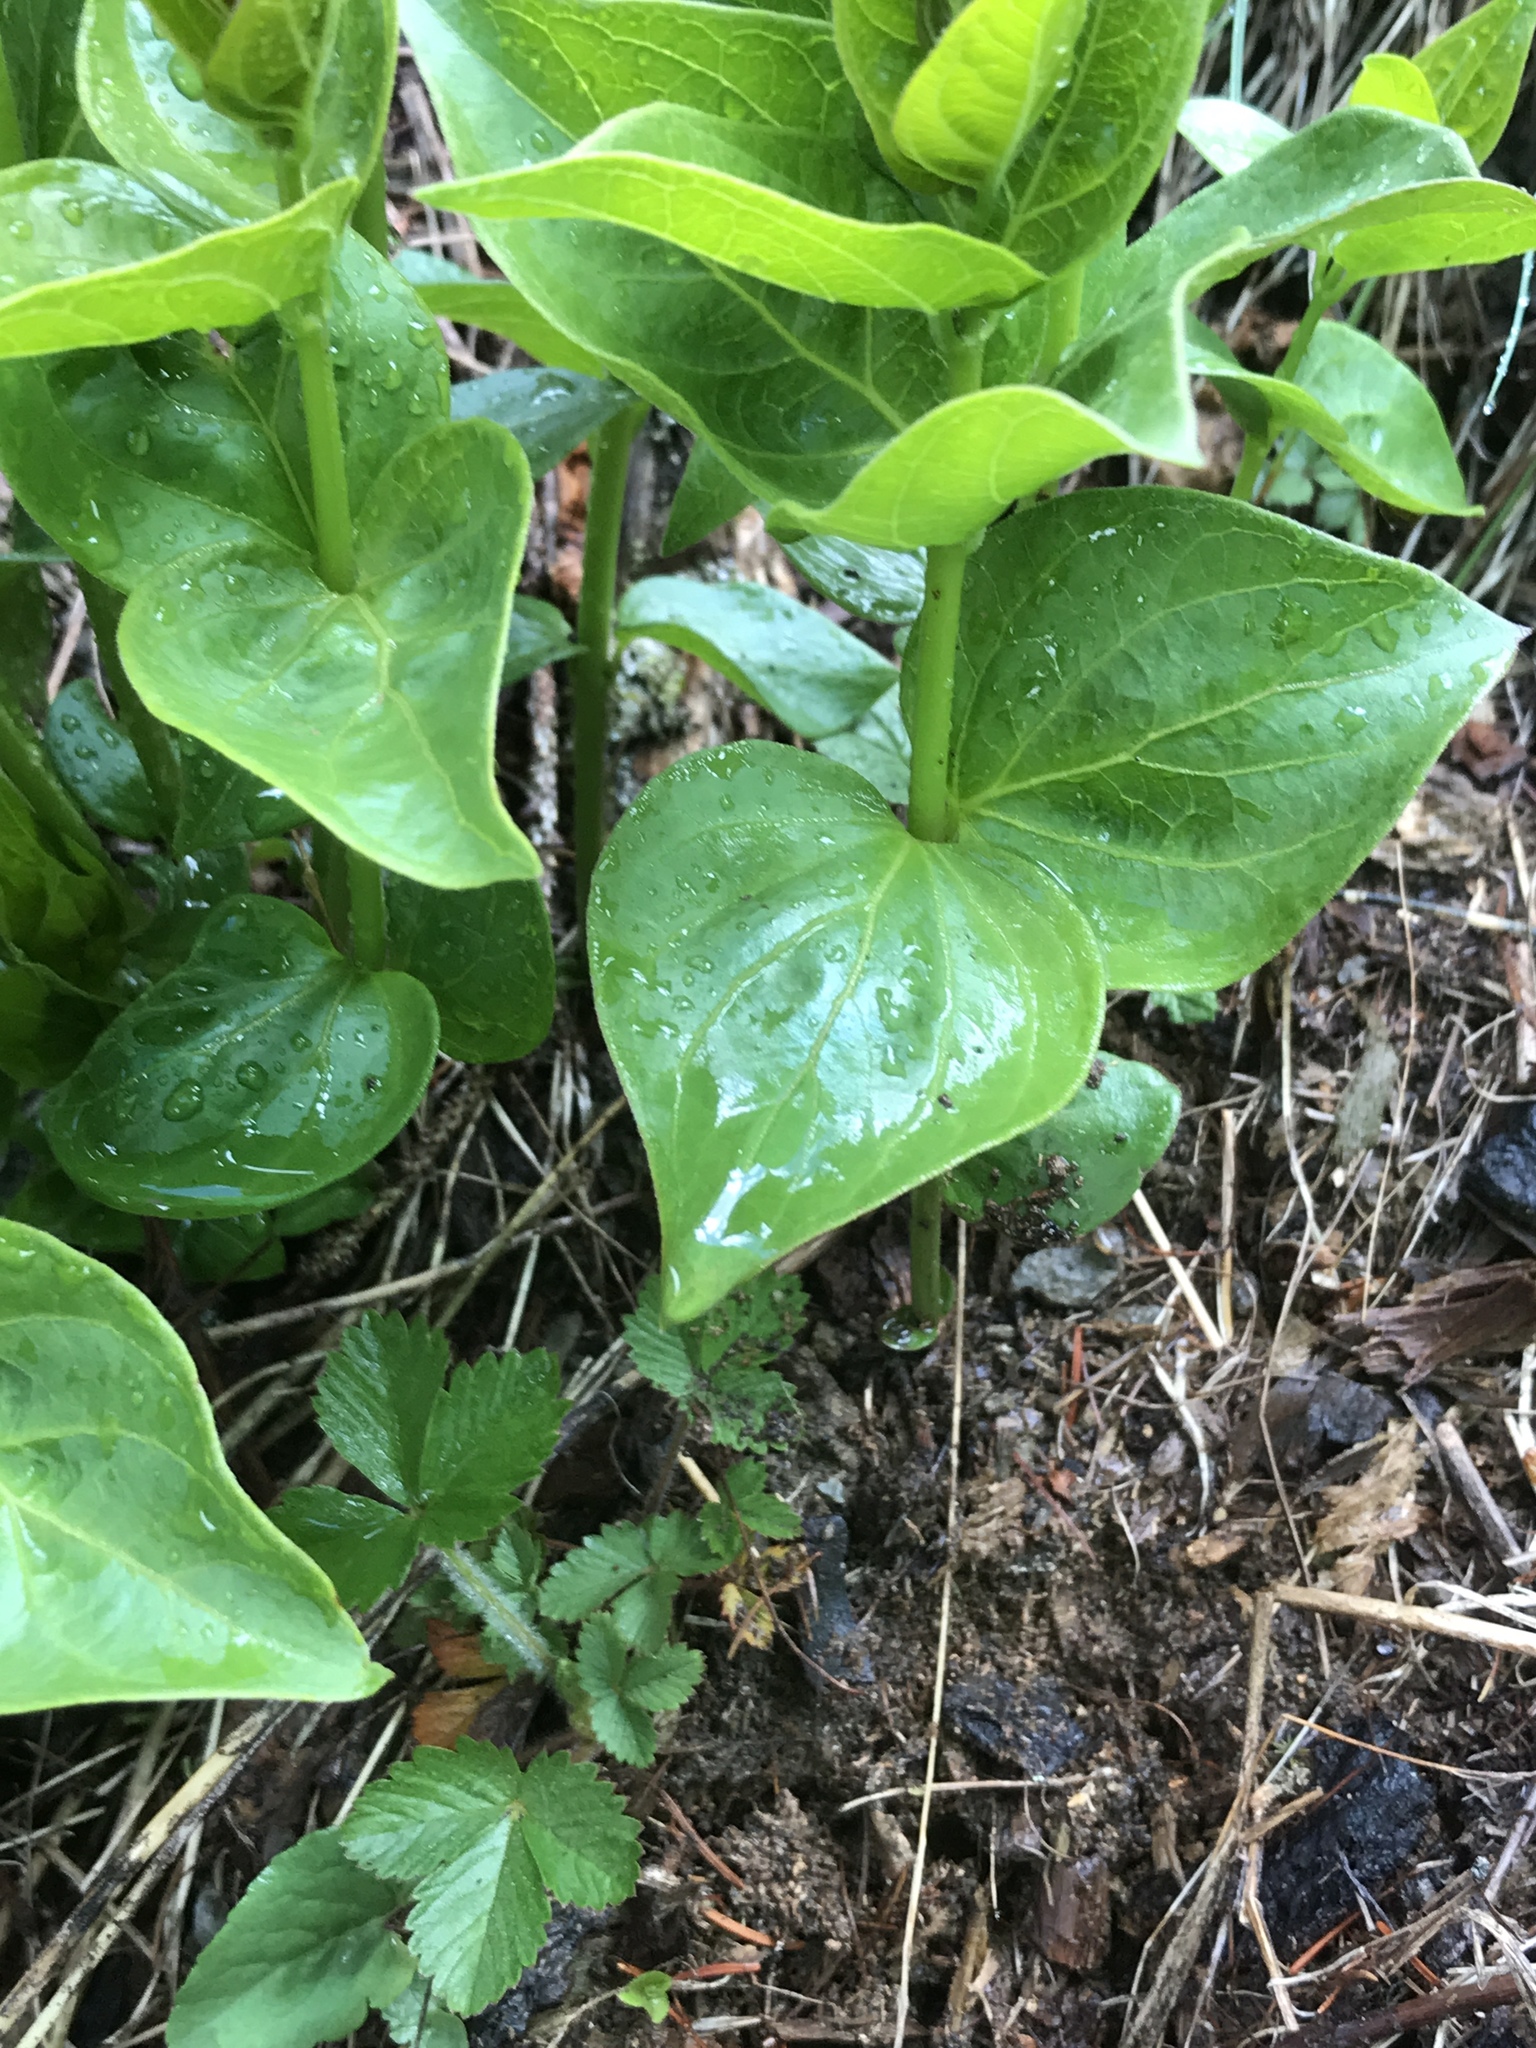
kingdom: Plantae
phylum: Tracheophyta
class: Magnoliopsida
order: Gentianales
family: Apocynaceae
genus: Vincetoxicum
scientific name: Vincetoxicum hirundinaria
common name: White swallowwort
